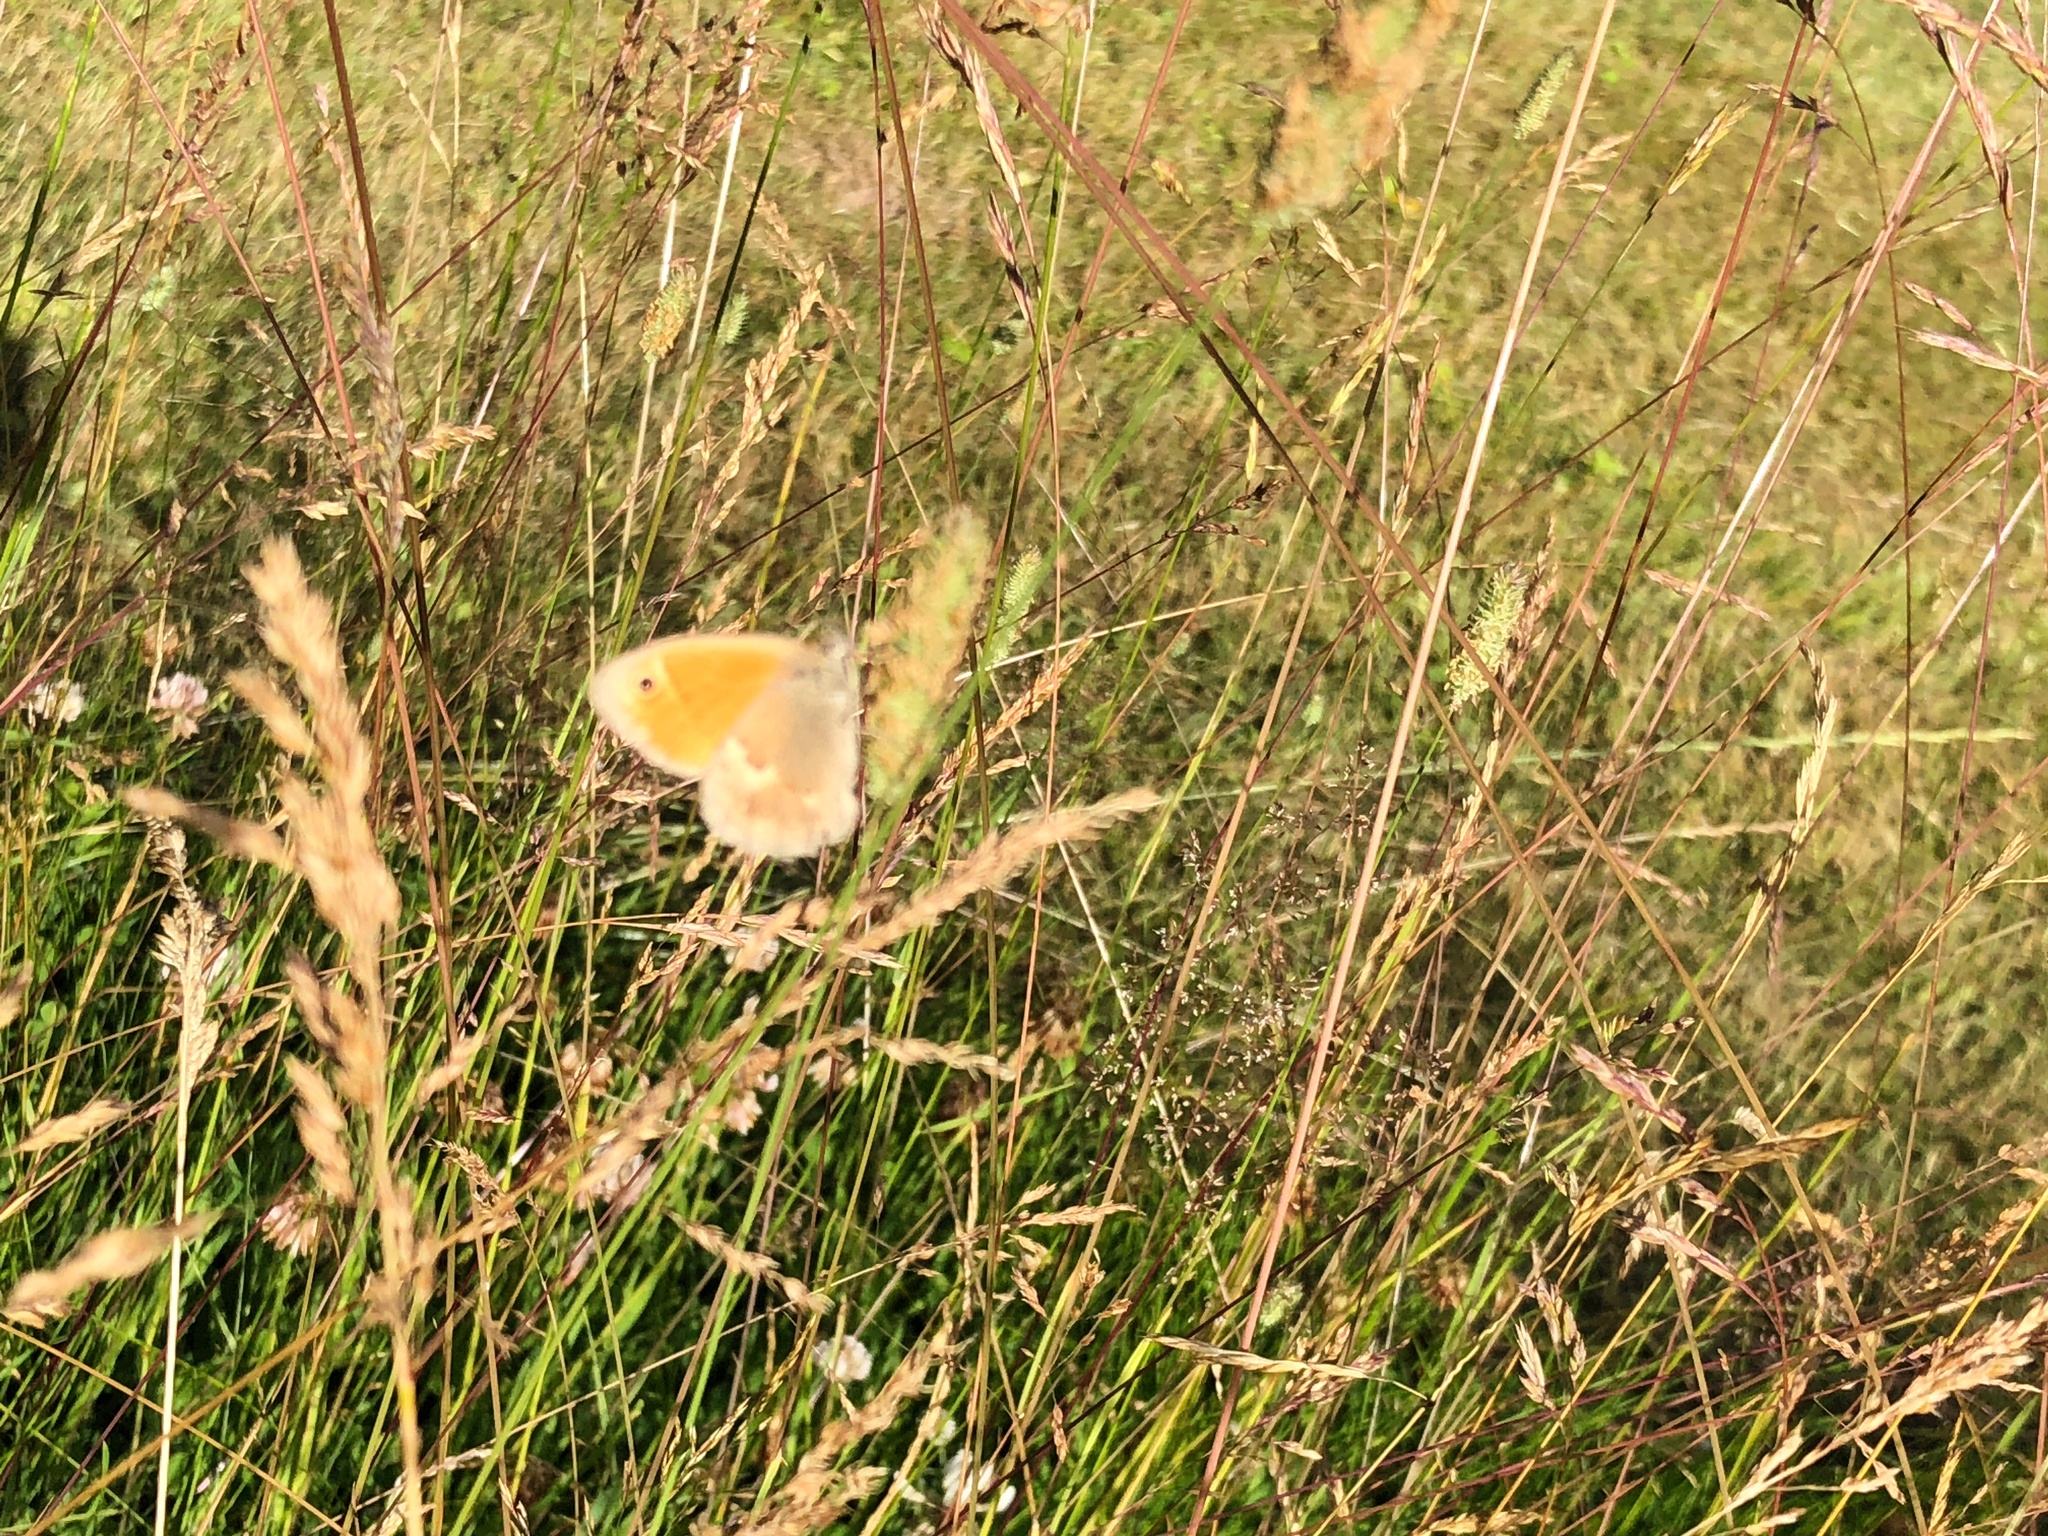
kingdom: Animalia
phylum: Arthropoda
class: Insecta
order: Lepidoptera
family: Nymphalidae
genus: Coenonympha
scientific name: Coenonympha pamphilus
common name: Small heath
